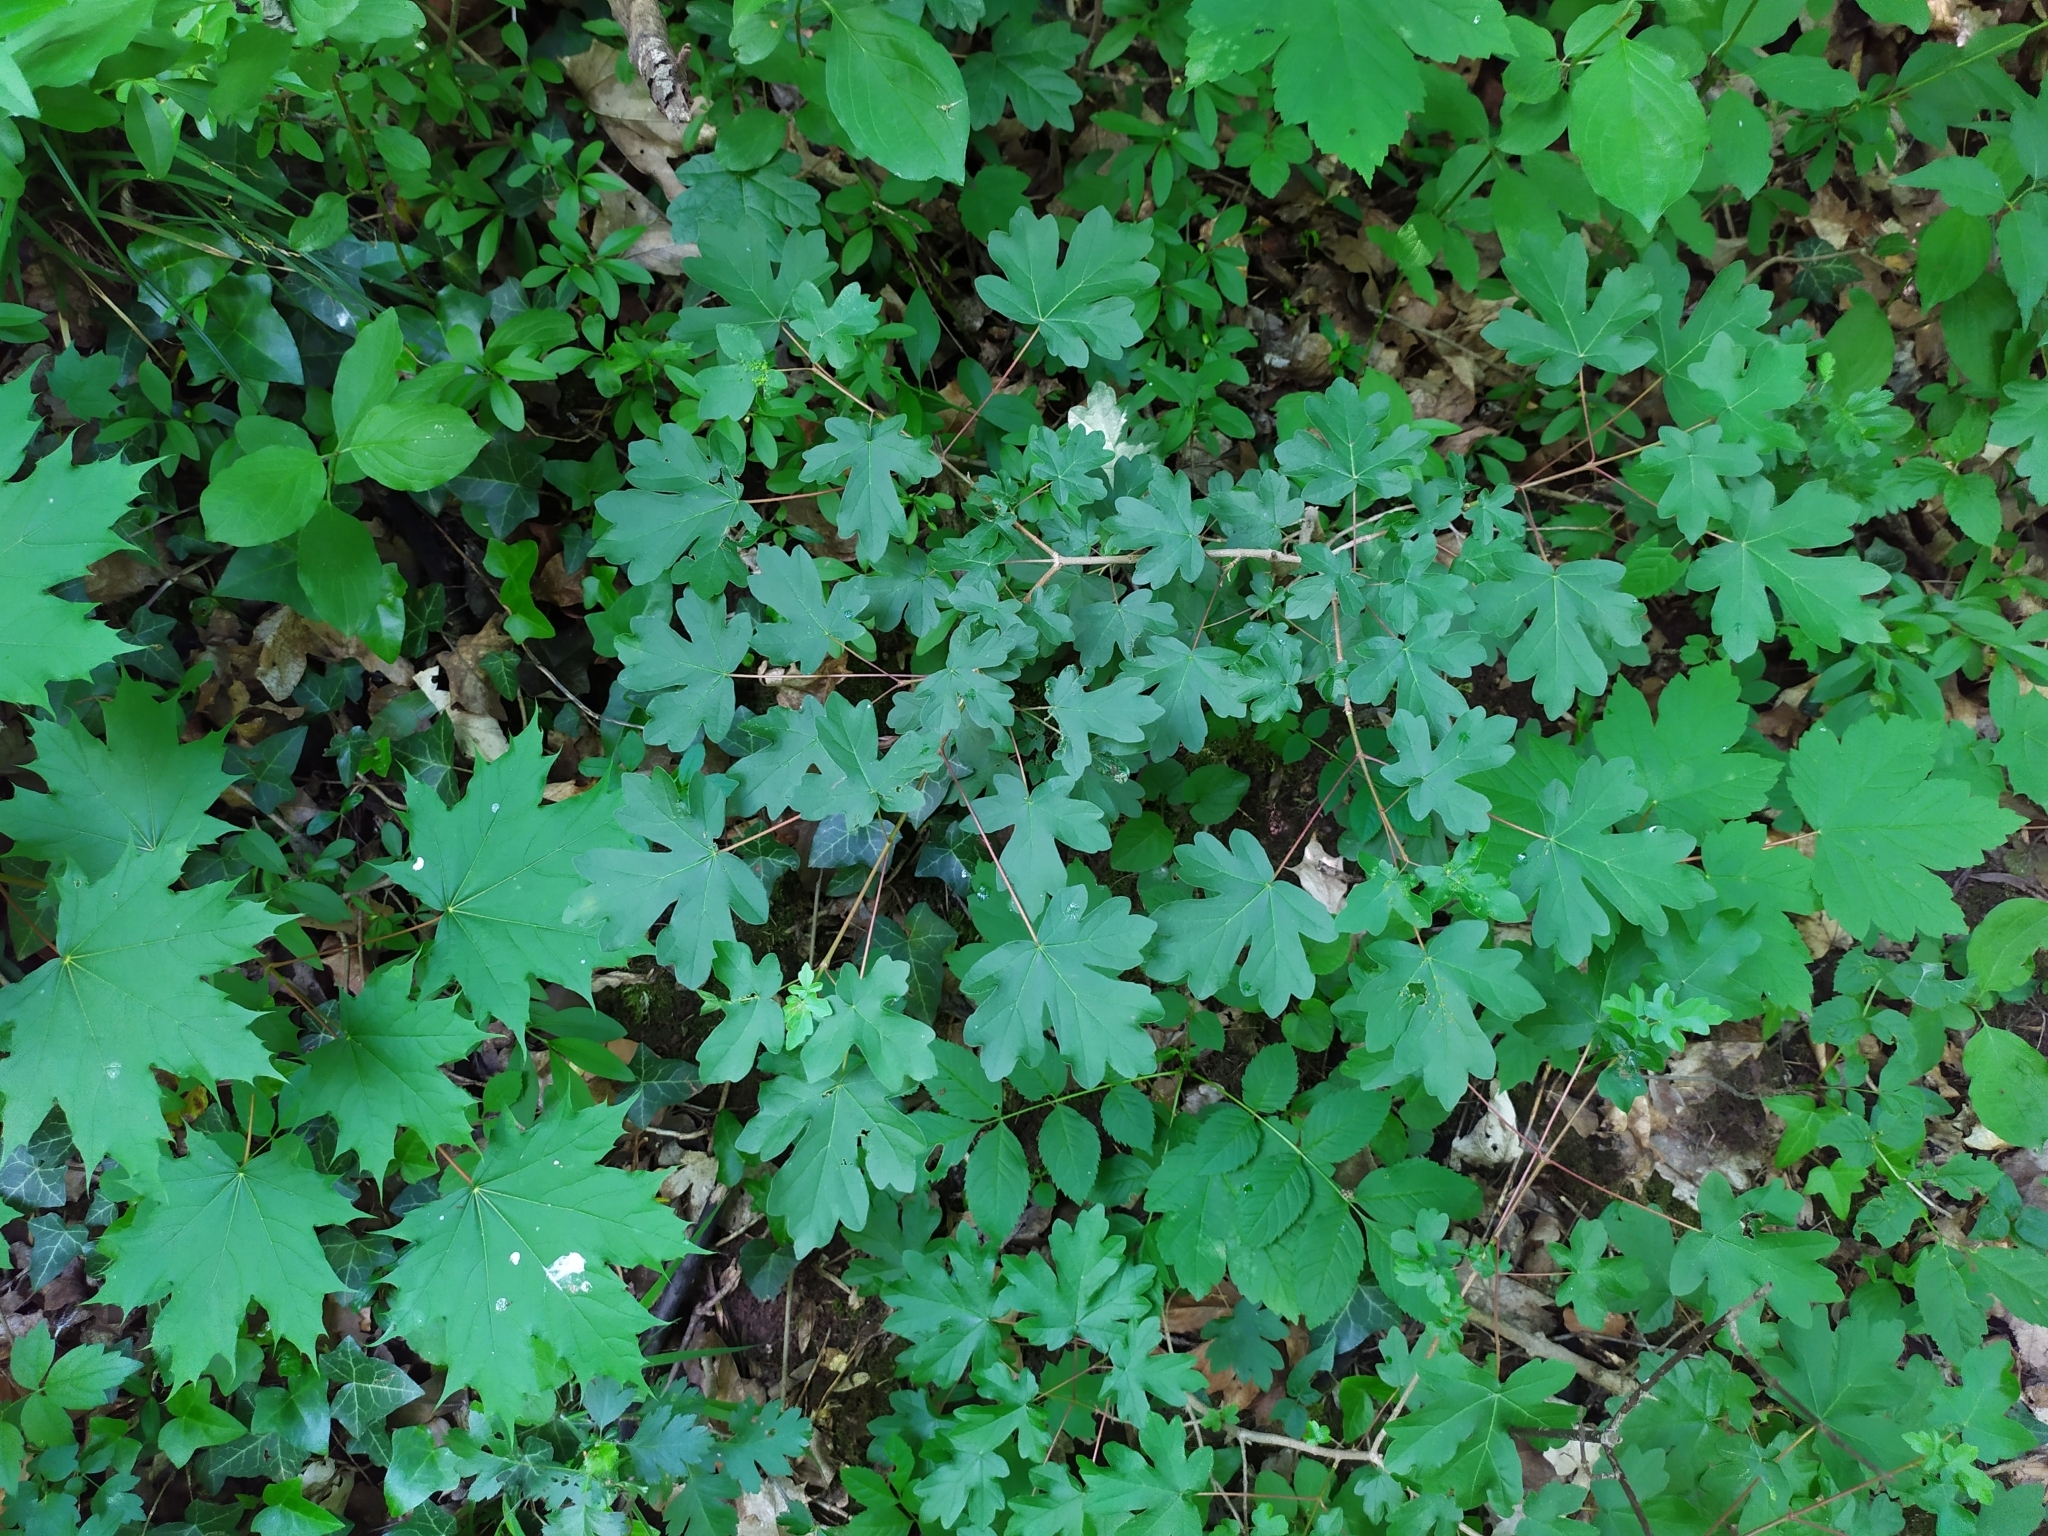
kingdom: Plantae
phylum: Tracheophyta
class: Magnoliopsida
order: Sapindales
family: Sapindaceae
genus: Acer
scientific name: Acer pseudoplatanus
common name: Sycamore
